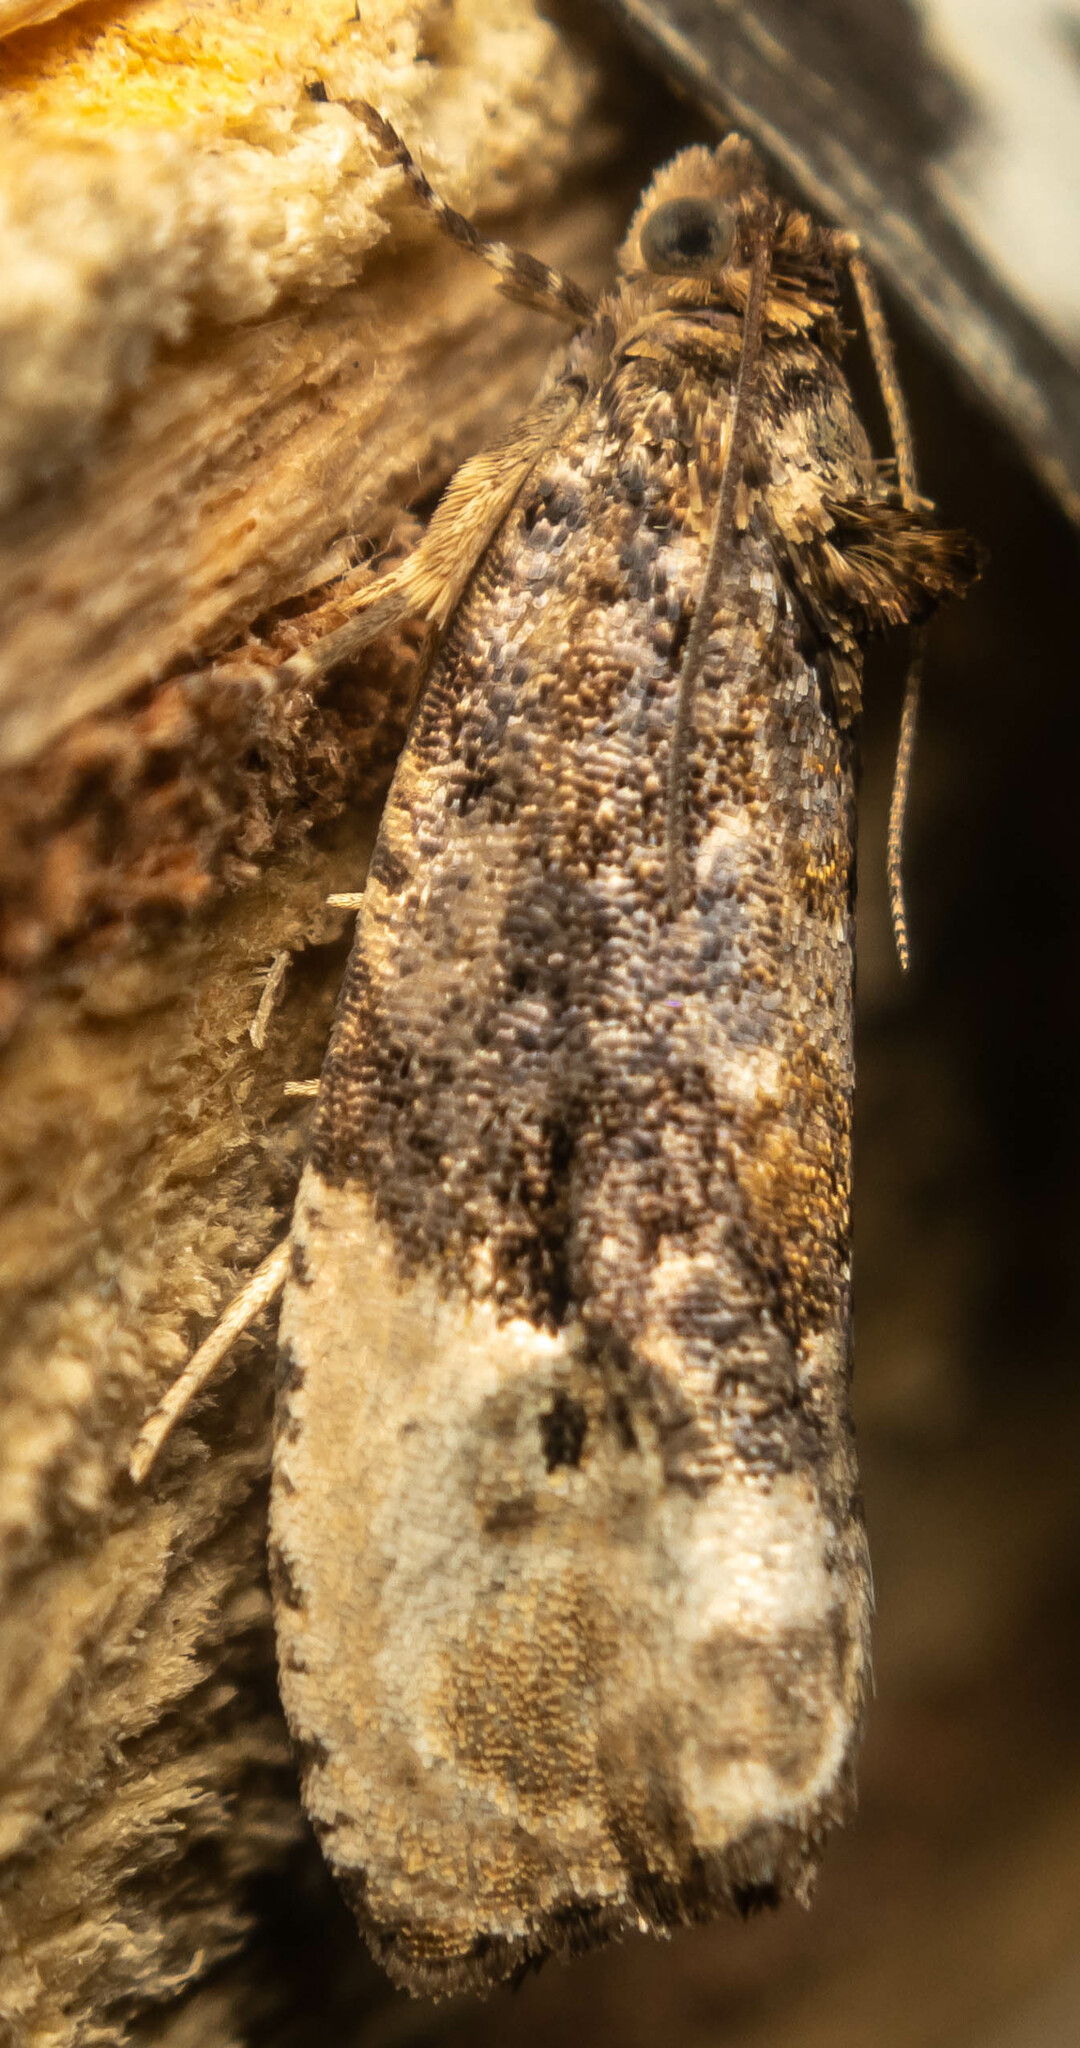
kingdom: Animalia
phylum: Arthropoda
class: Insecta
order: Lepidoptera
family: Tortricidae
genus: Hedya
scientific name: Hedya nubiferana
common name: Marbled orchard tortrix
